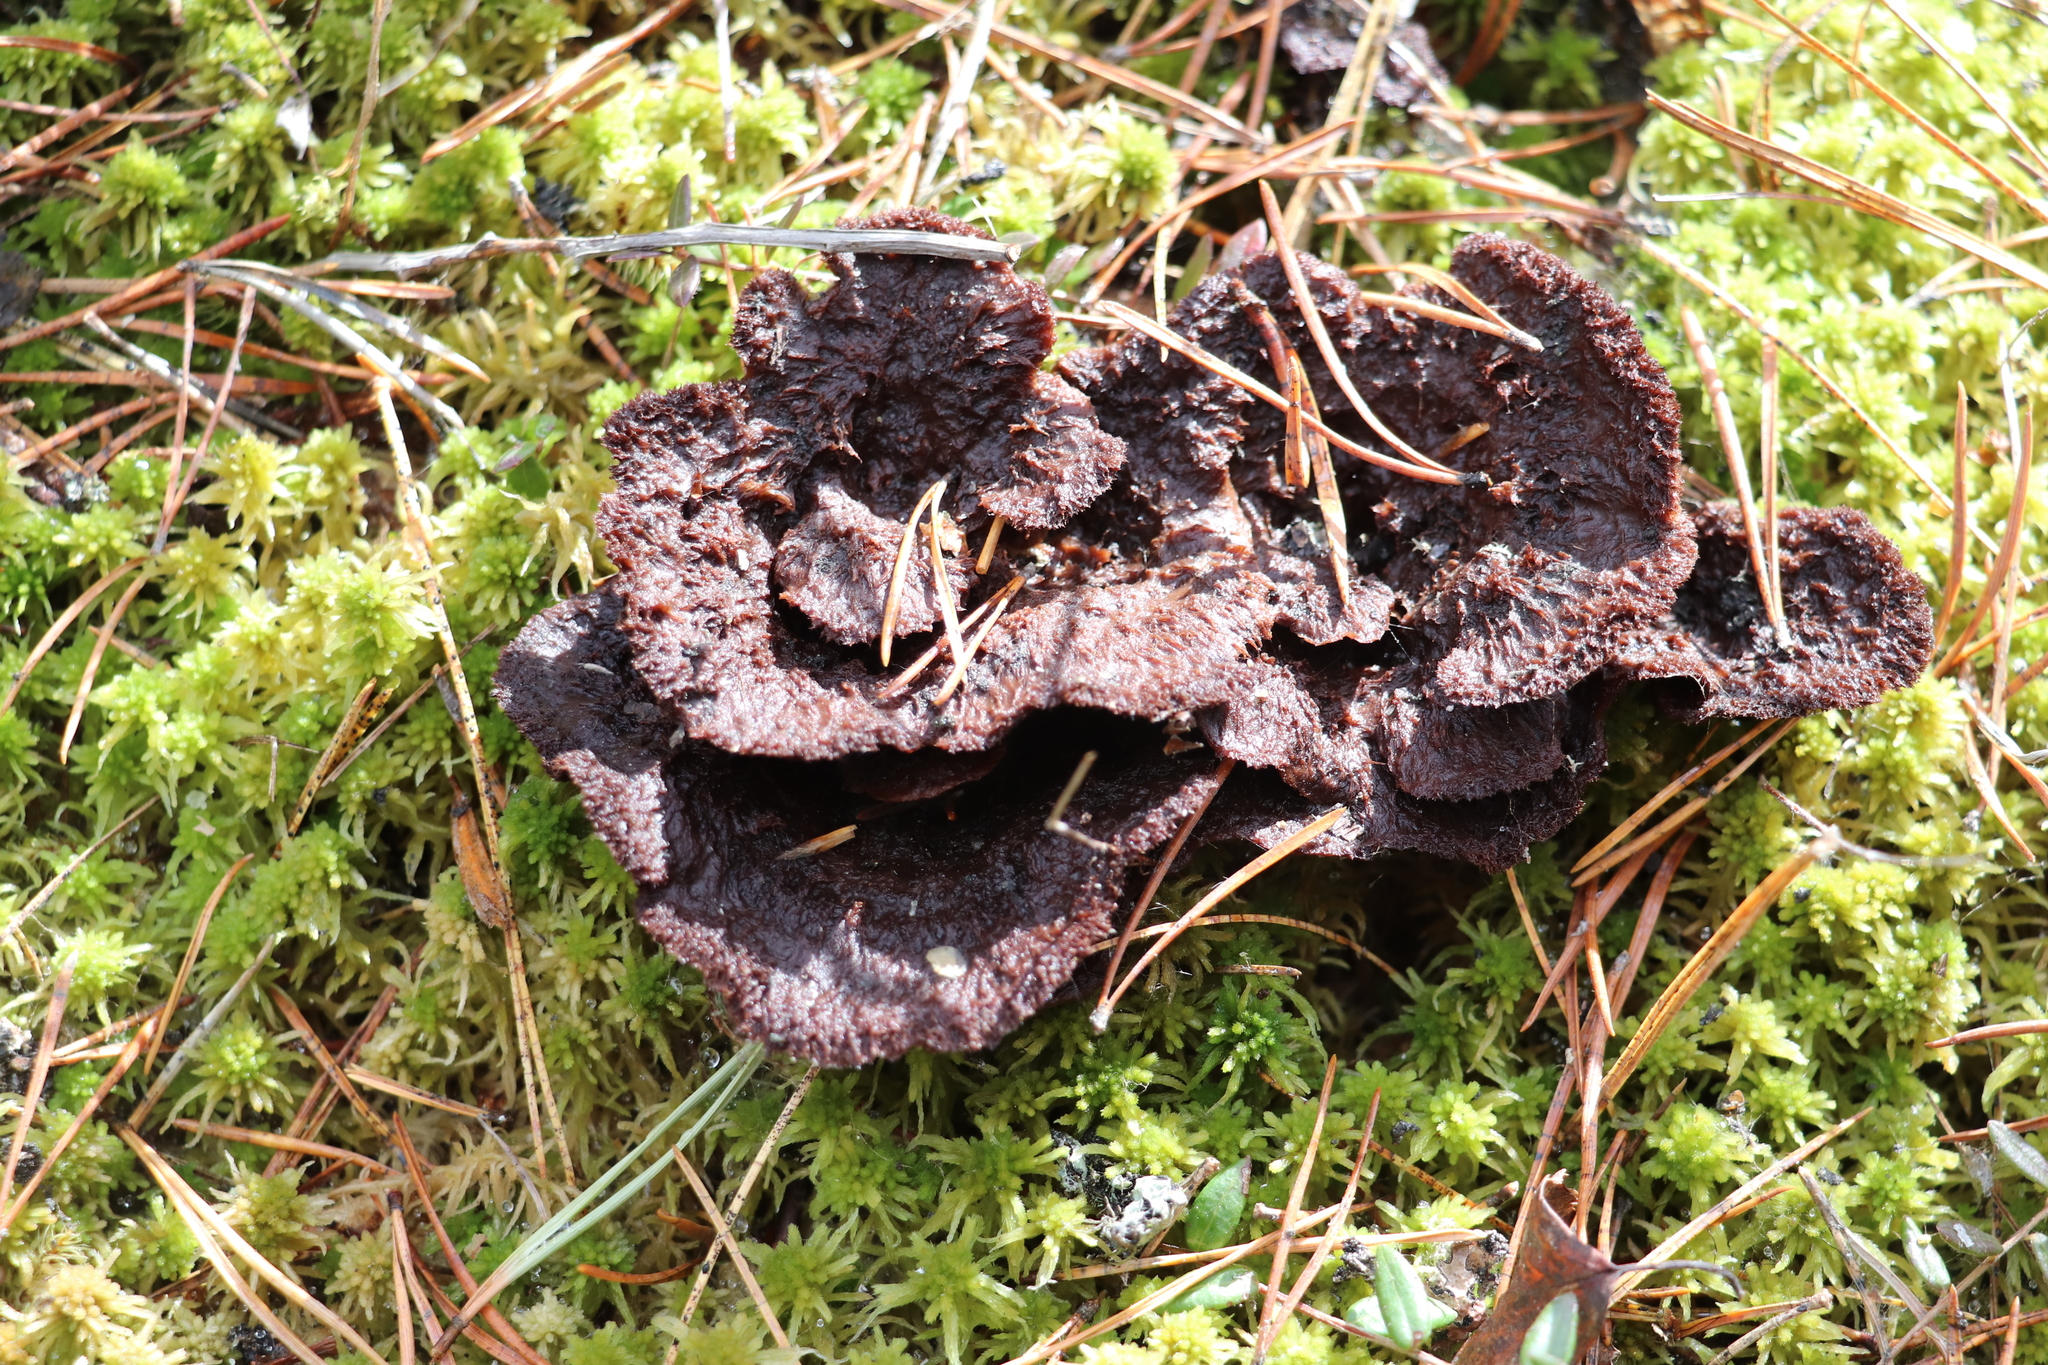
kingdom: Fungi
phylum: Basidiomycota
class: Agaricomycetes
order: Thelephorales
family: Thelephoraceae
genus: Thelephora
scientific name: Thelephora terrestris
